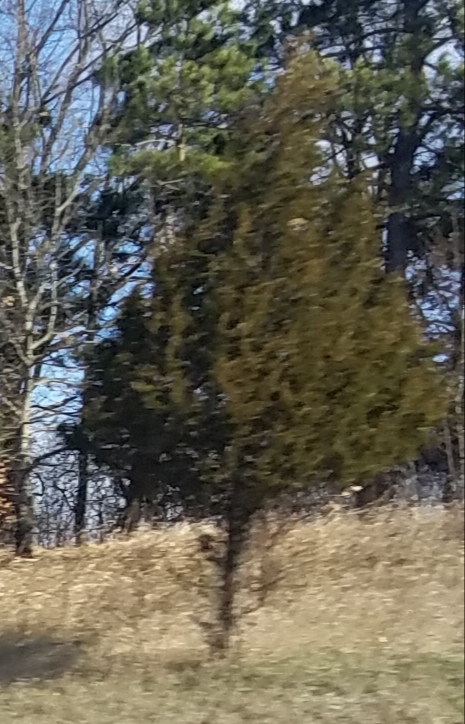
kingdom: Plantae
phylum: Tracheophyta
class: Pinopsida
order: Pinales
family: Cupressaceae
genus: Juniperus
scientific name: Juniperus virginiana
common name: Red juniper
